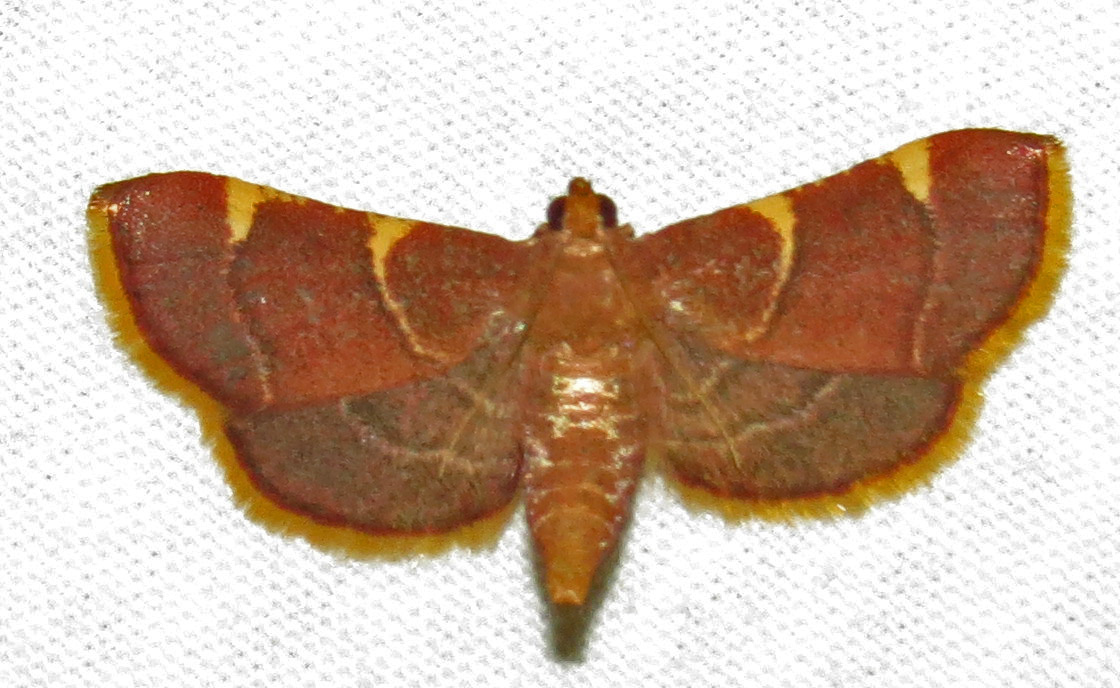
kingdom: Animalia
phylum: Arthropoda
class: Insecta
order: Lepidoptera
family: Pyralidae
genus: Hypsopygia
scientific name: Hypsopygia olinalis
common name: Yellow-fringed dolichomia moth
